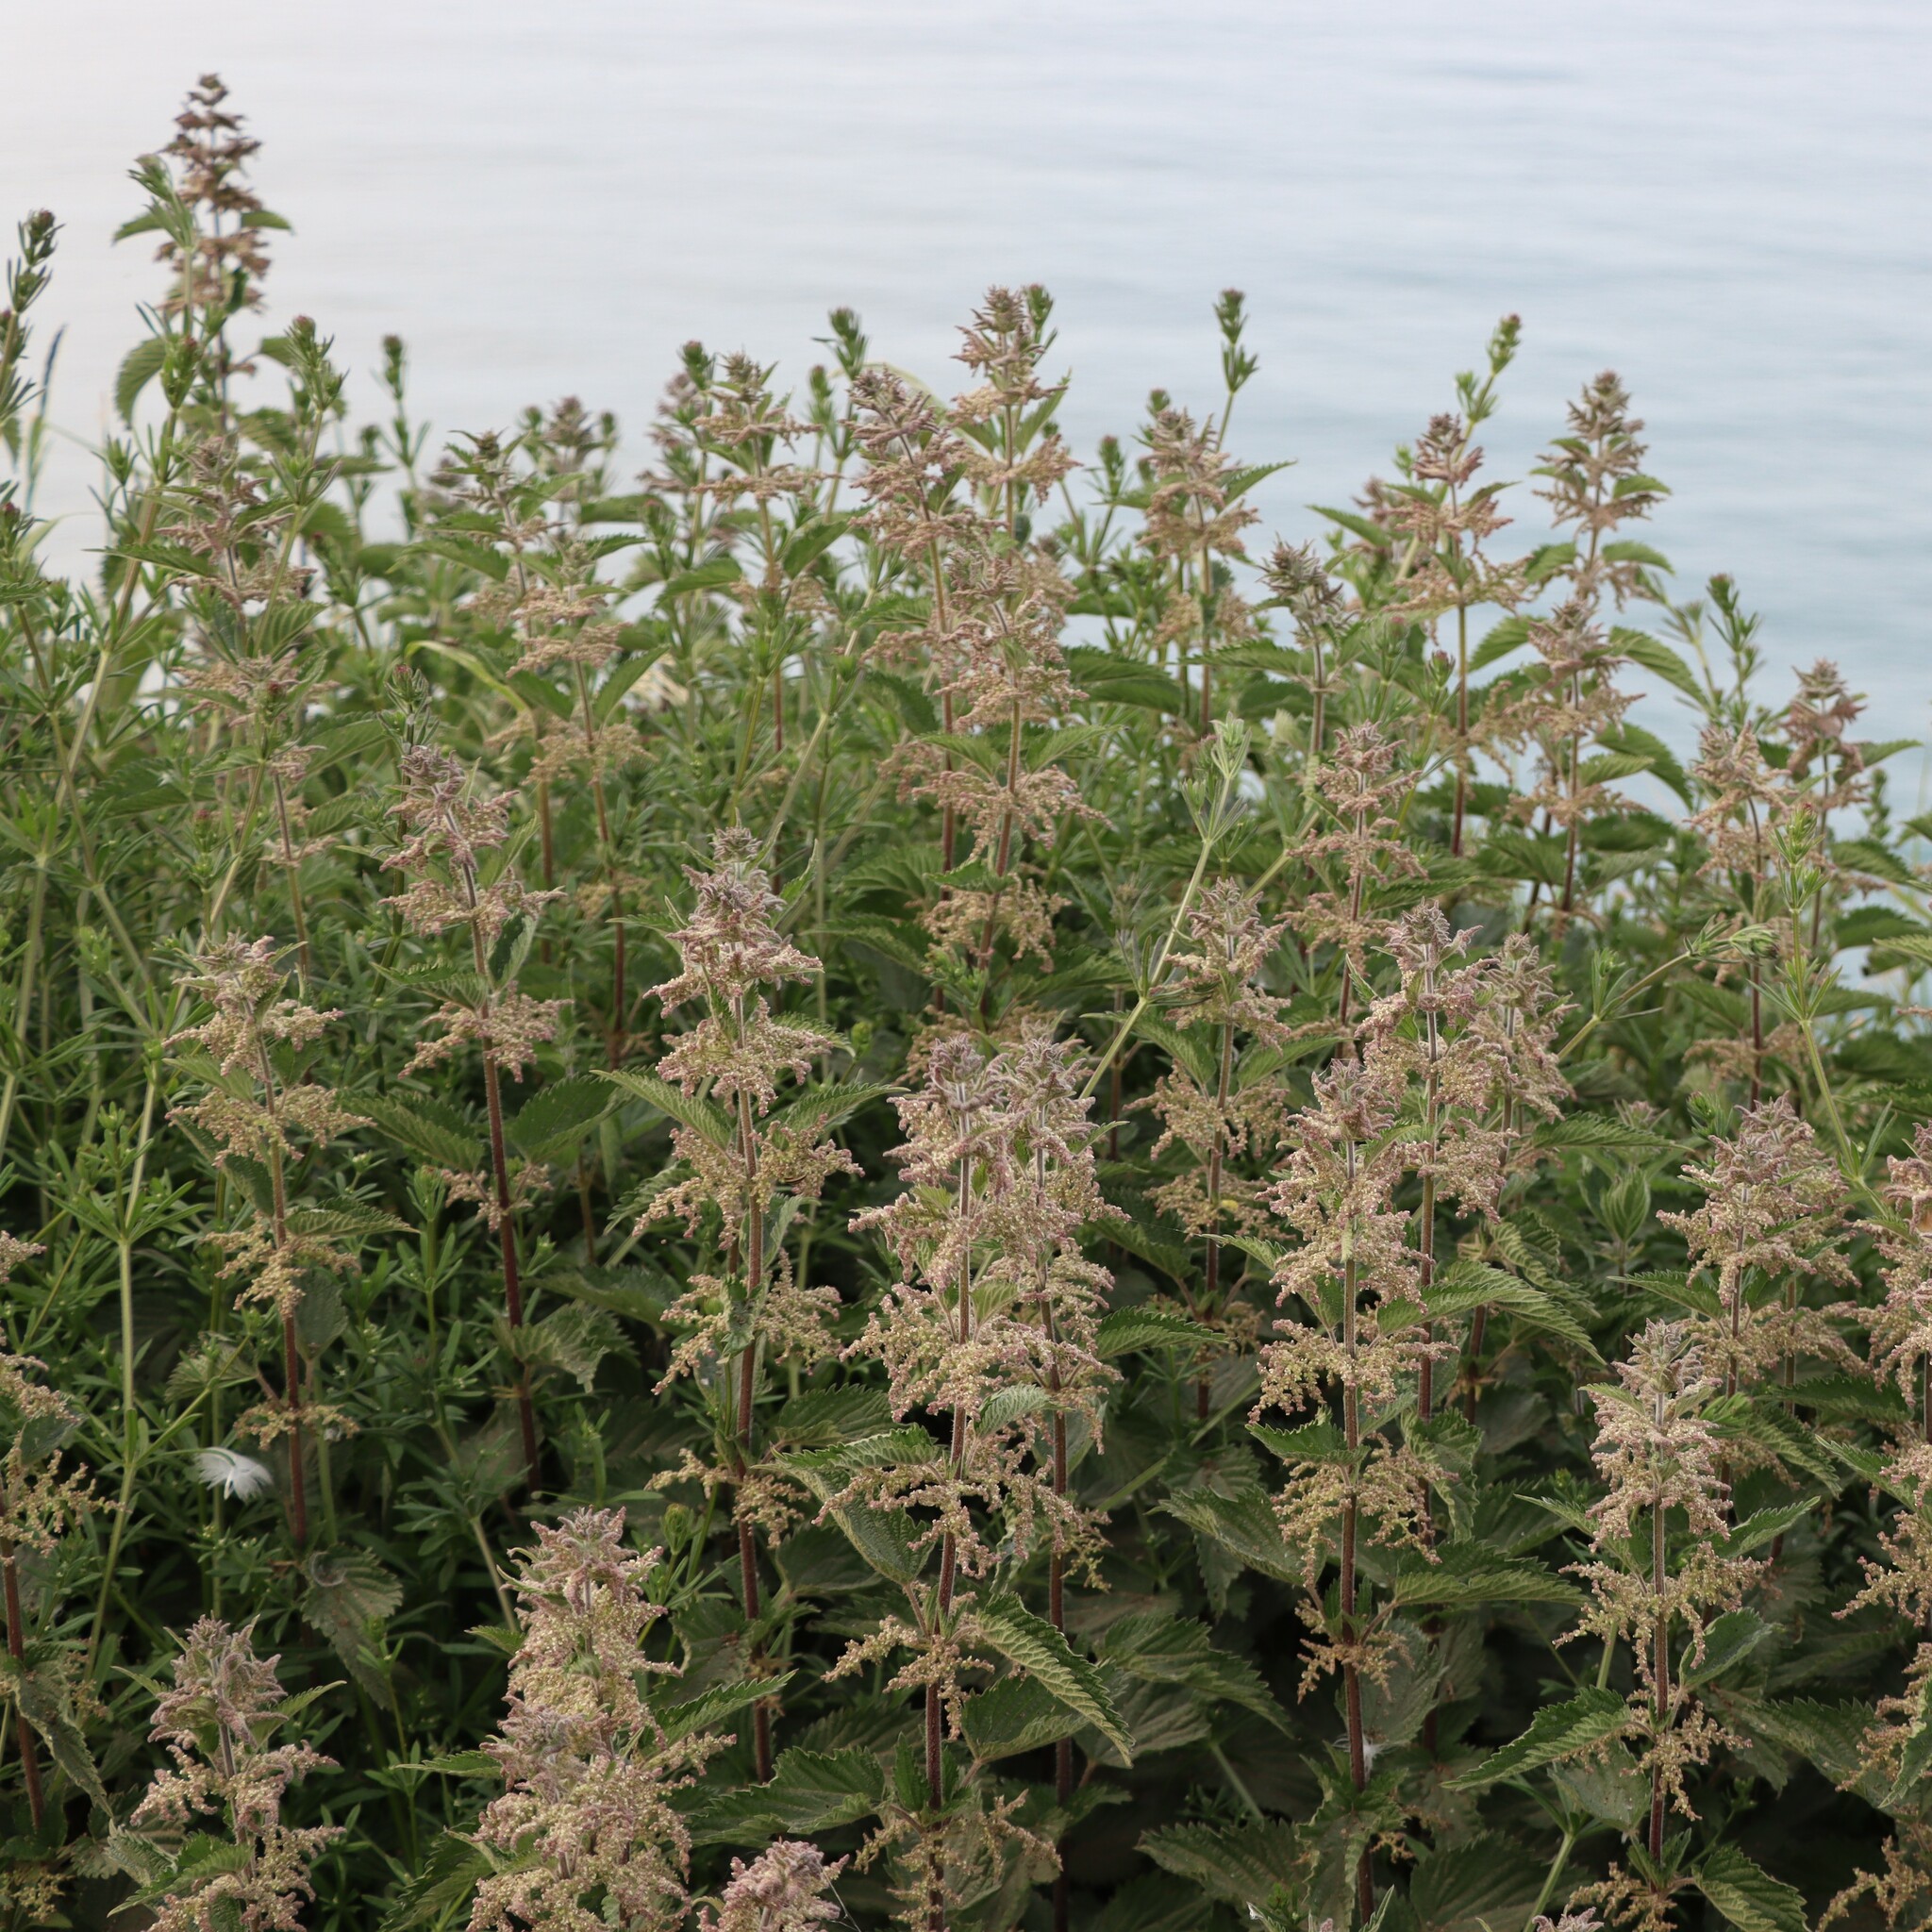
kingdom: Plantae
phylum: Tracheophyta
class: Magnoliopsida
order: Rosales
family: Urticaceae
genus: Urtica
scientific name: Urtica dioica
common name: Common nettle
